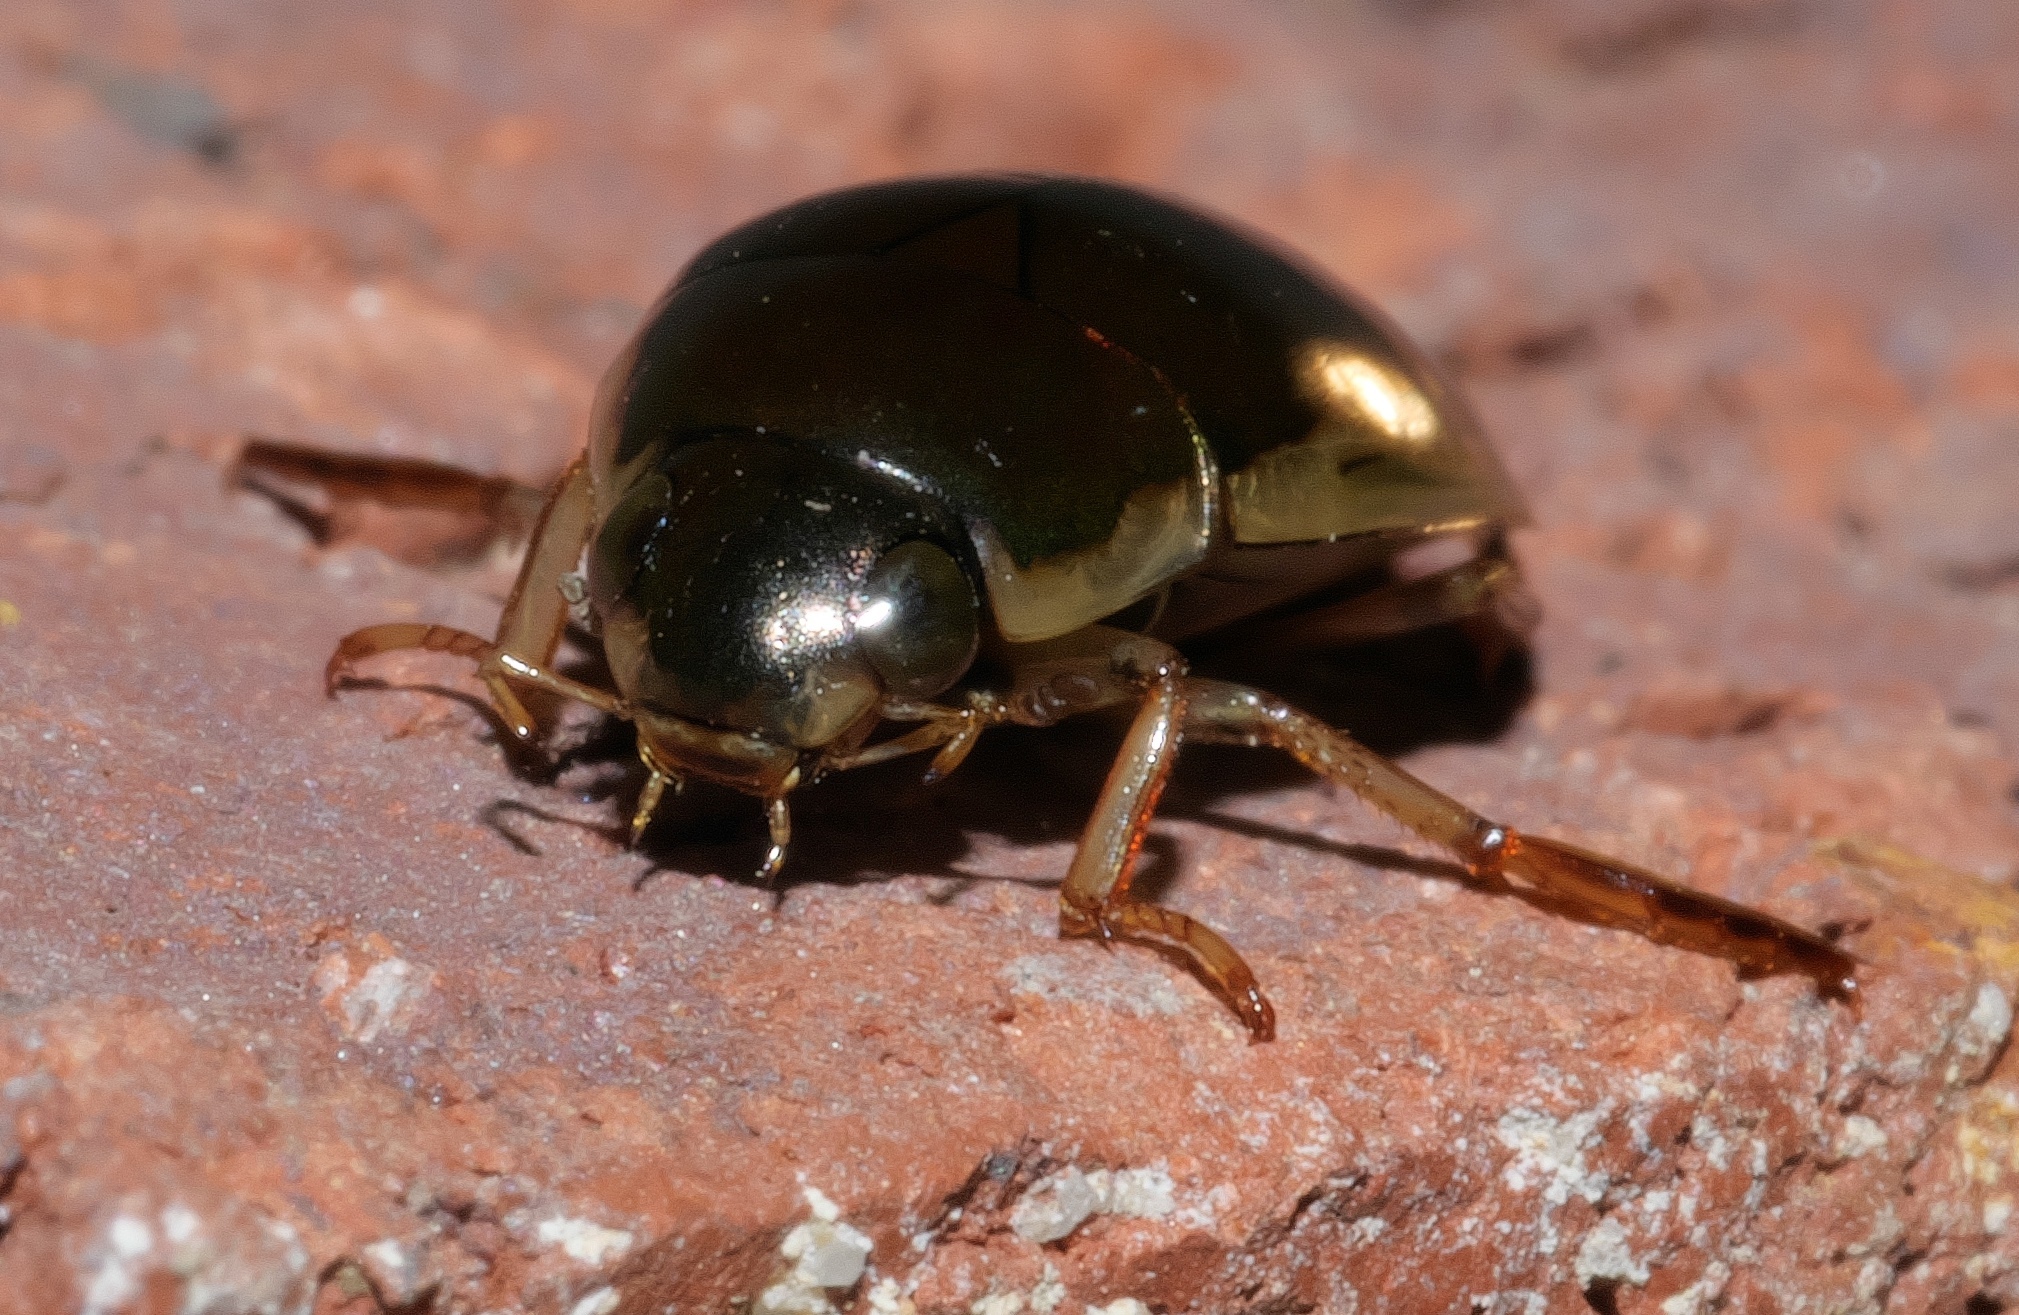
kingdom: Animalia
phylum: Arthropoda
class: Insecta
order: Coleoptera
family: Hydrophilidae
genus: Tropisternus
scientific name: Tropisternus lateralis
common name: Lateral-banded water scavenger beetle
